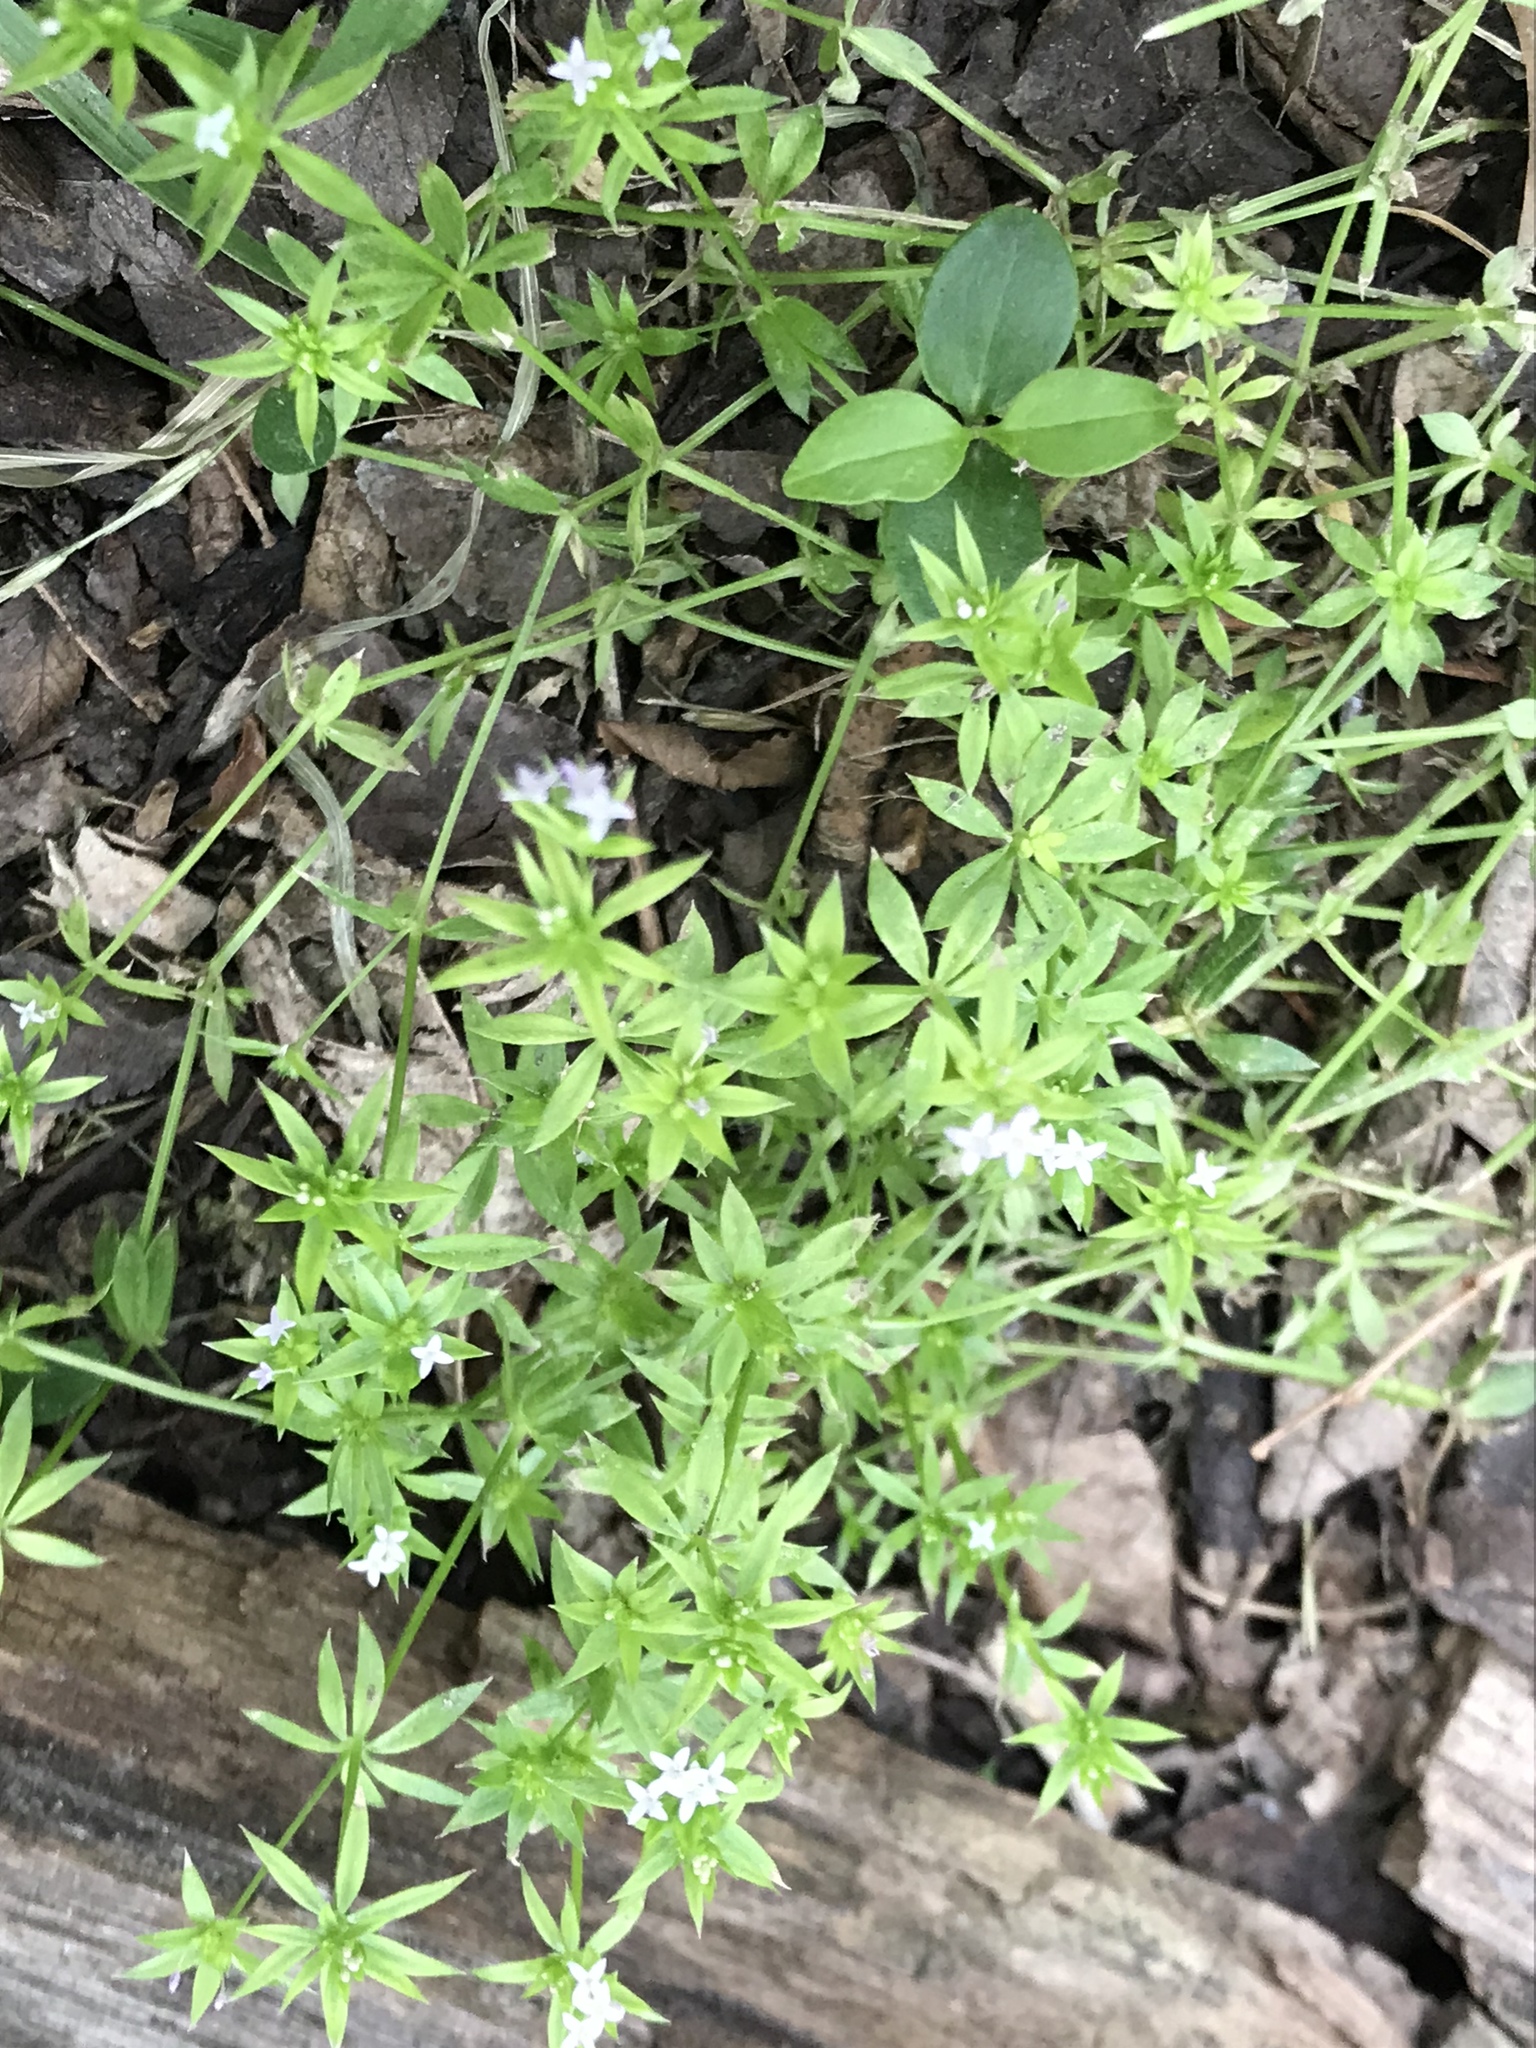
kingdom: Plantae
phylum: Tracheophyta
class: Magnoliopsida
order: Gentianales
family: Rubiaceae
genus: Sherardia
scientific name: Sherardia arvensis
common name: Field madder
